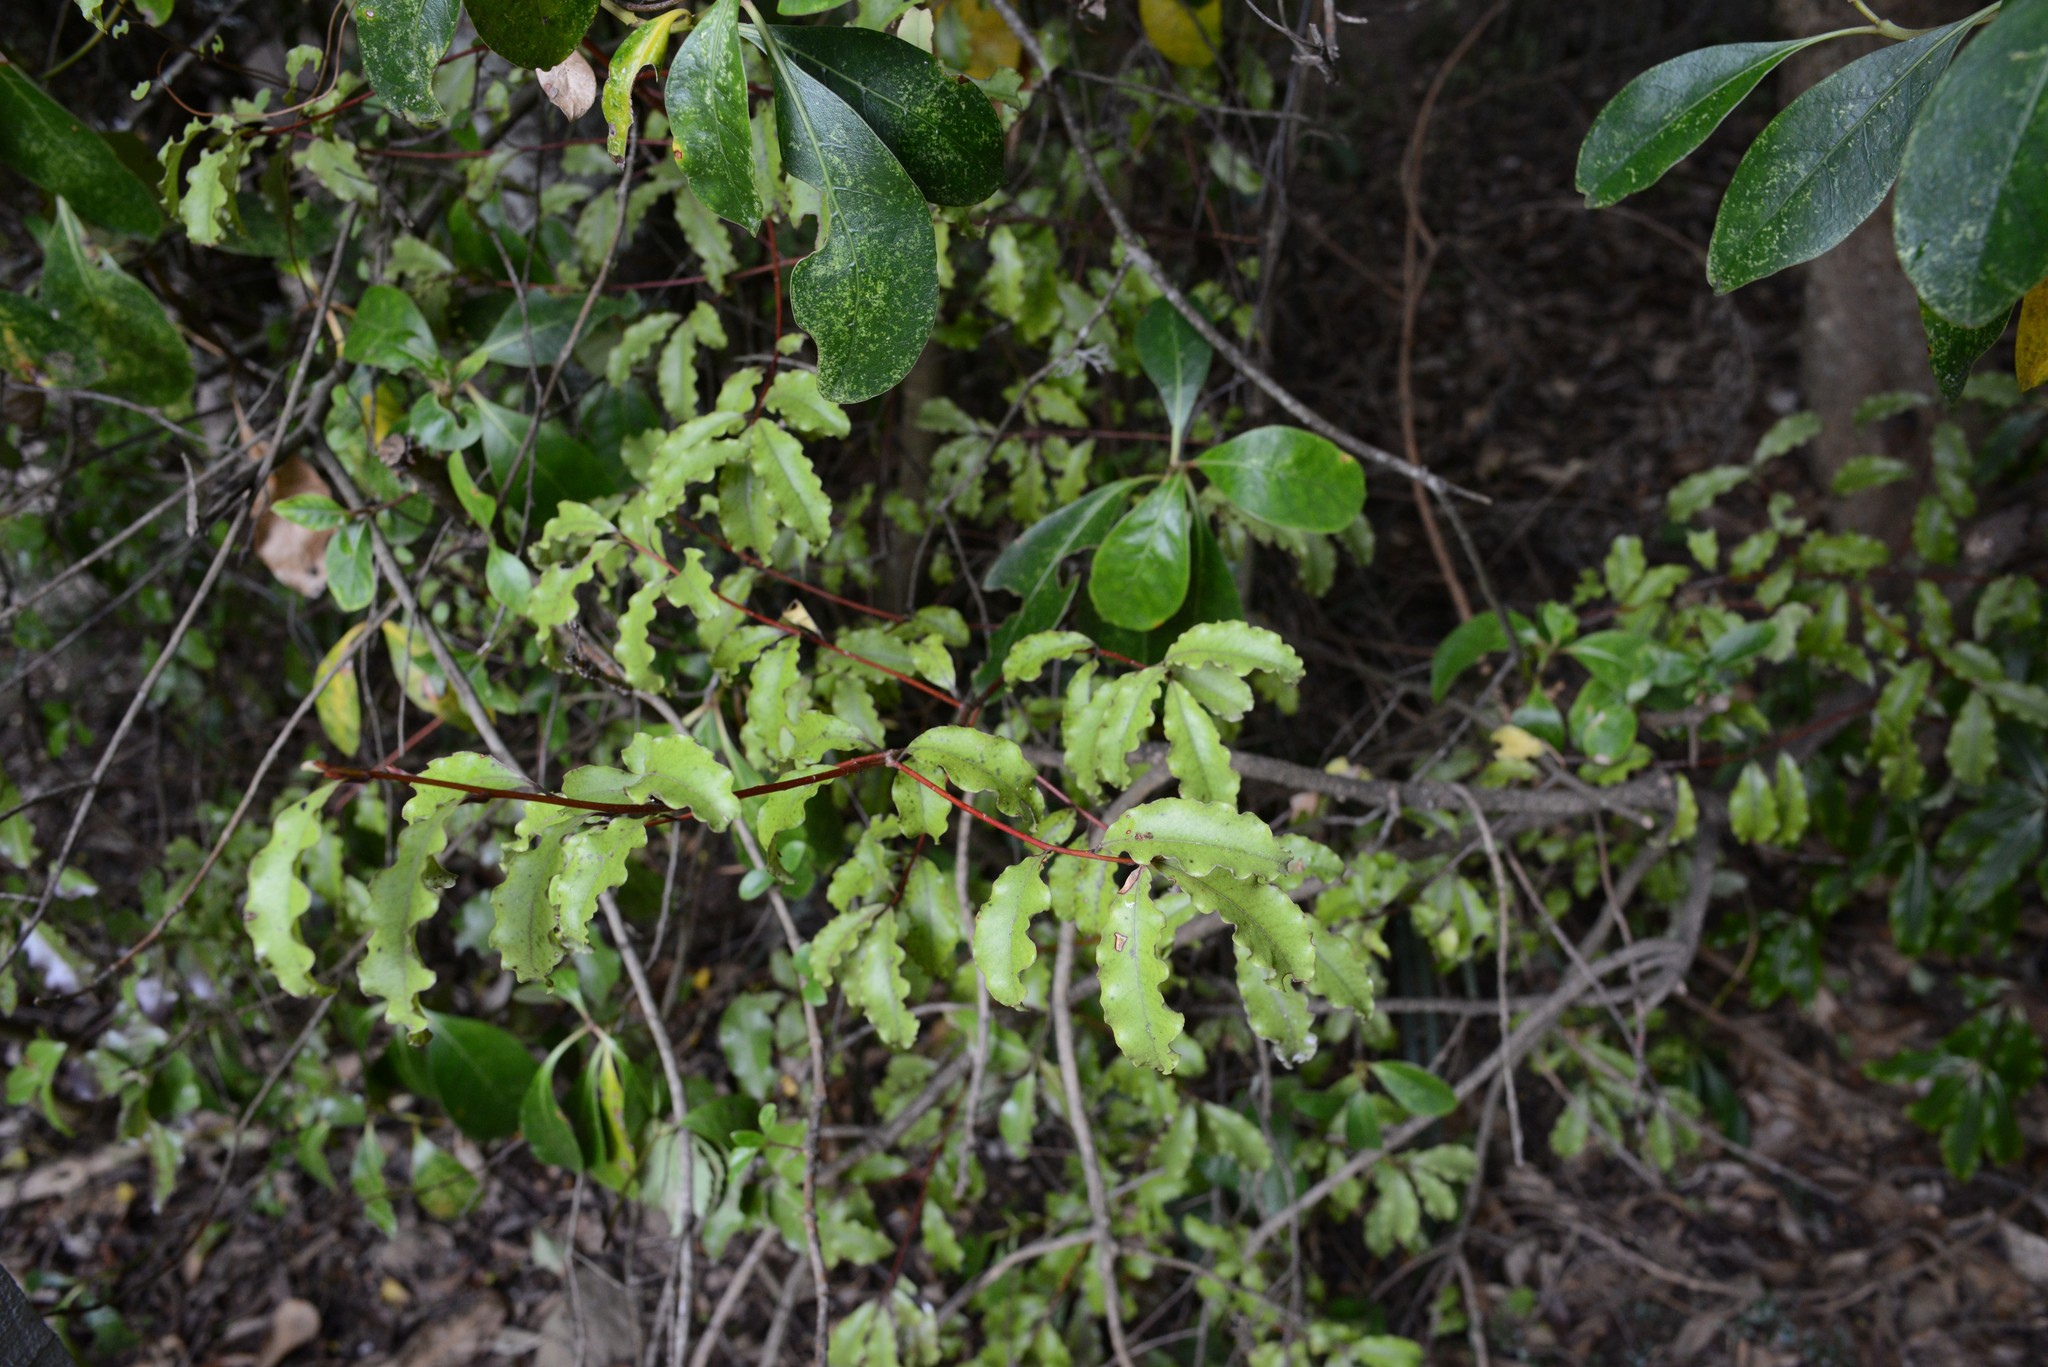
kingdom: Plantae
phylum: Tracheophyta
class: Magnoliopsida
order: Ericales
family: Primulaceae
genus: Myrsine
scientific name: Myrsine australis
